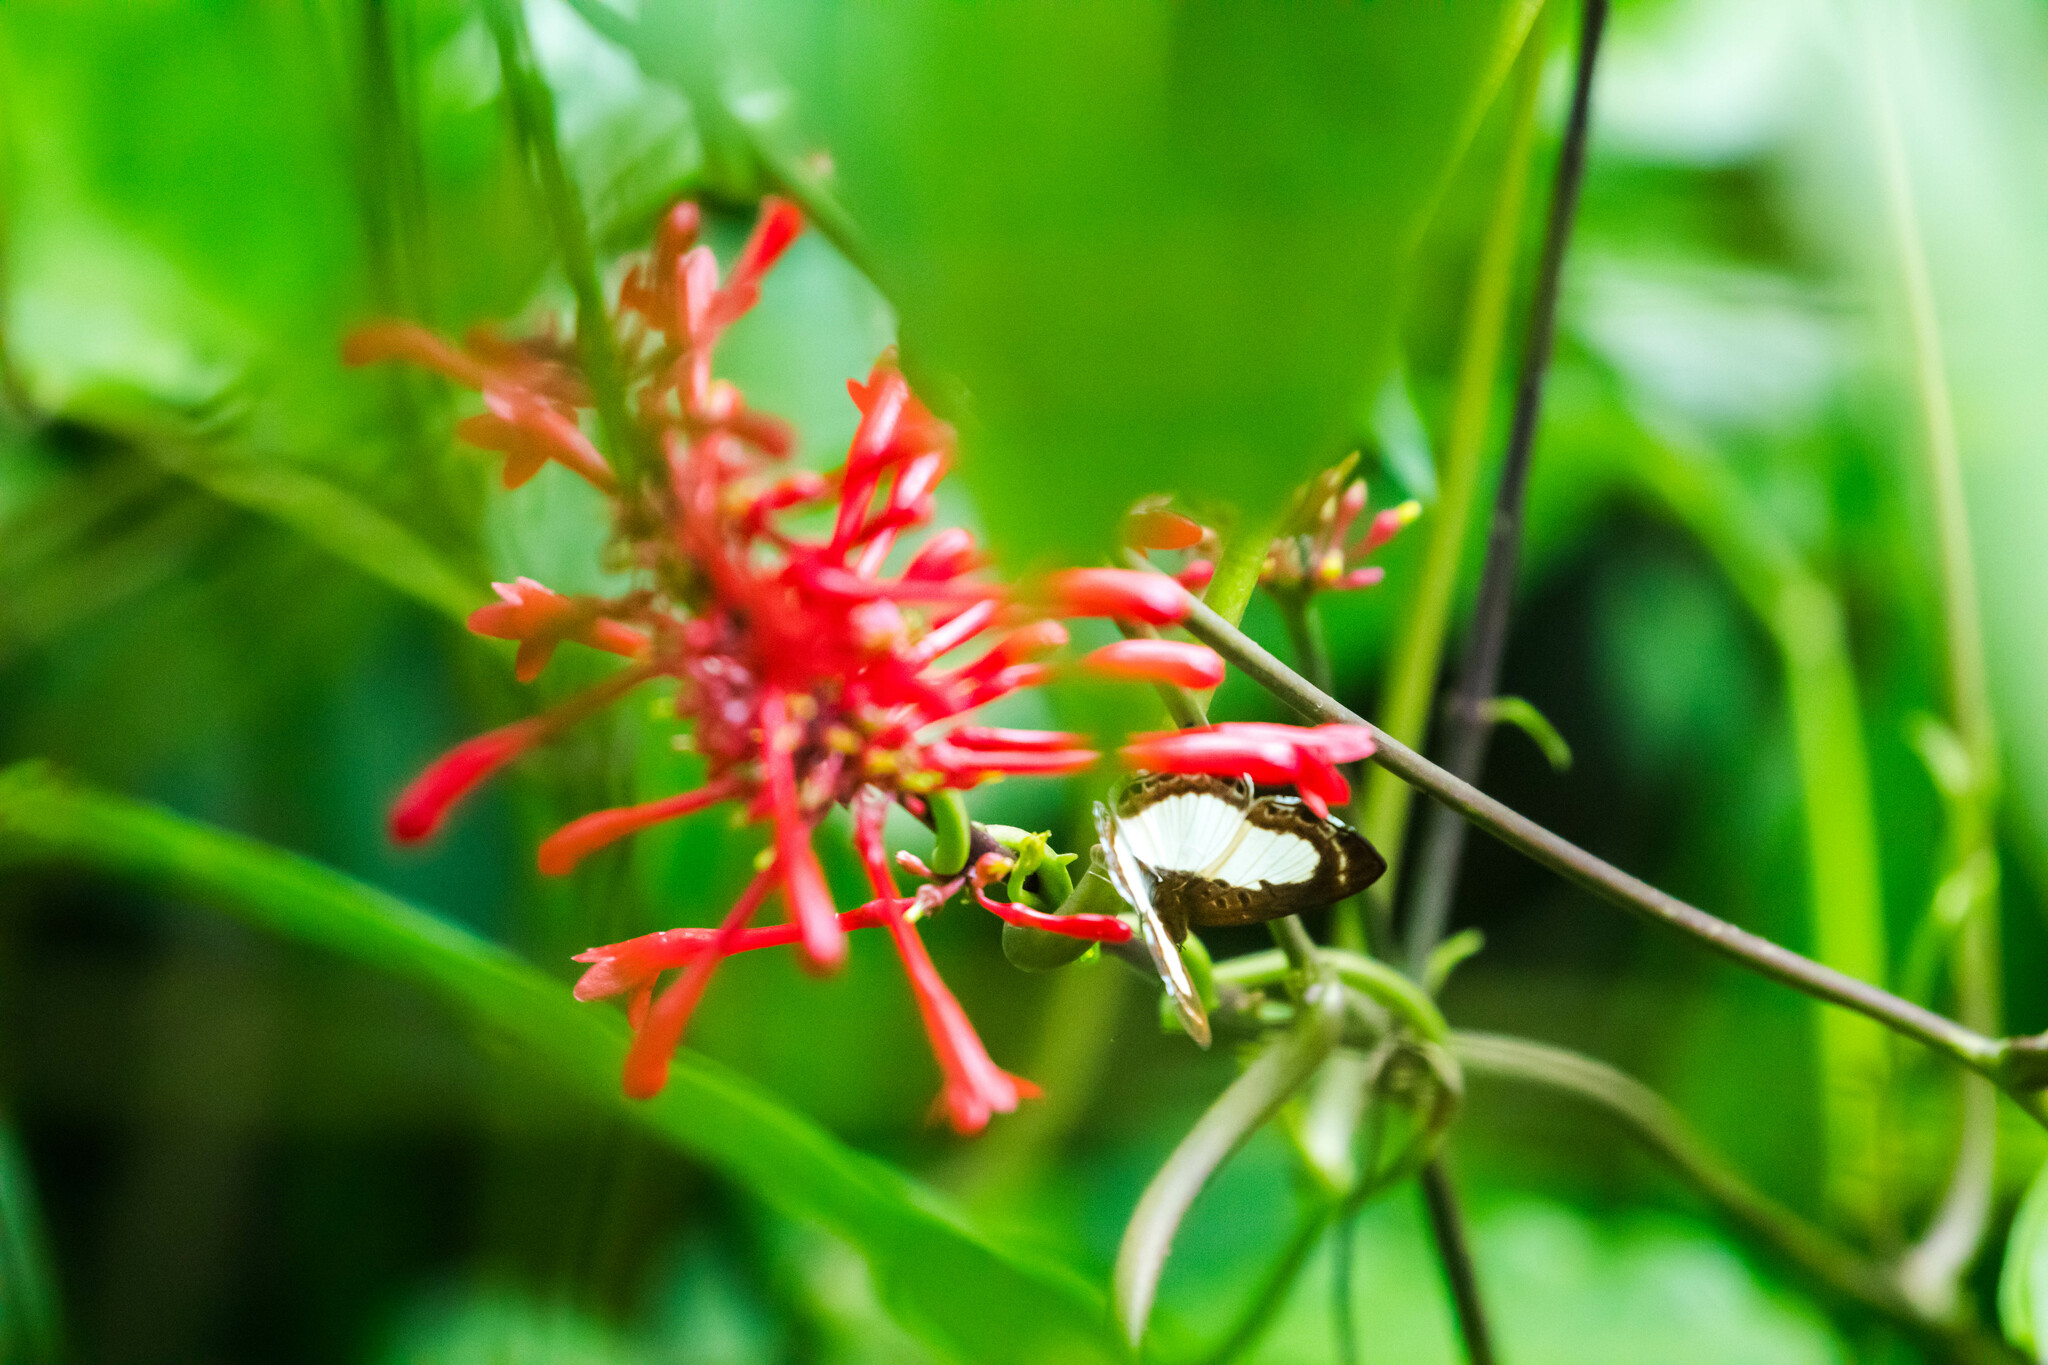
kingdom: Animalia
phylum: Arthropoda
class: Insecta
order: Lepidoptera
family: Riodinidae
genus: Nymula
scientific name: Nymula calyce
